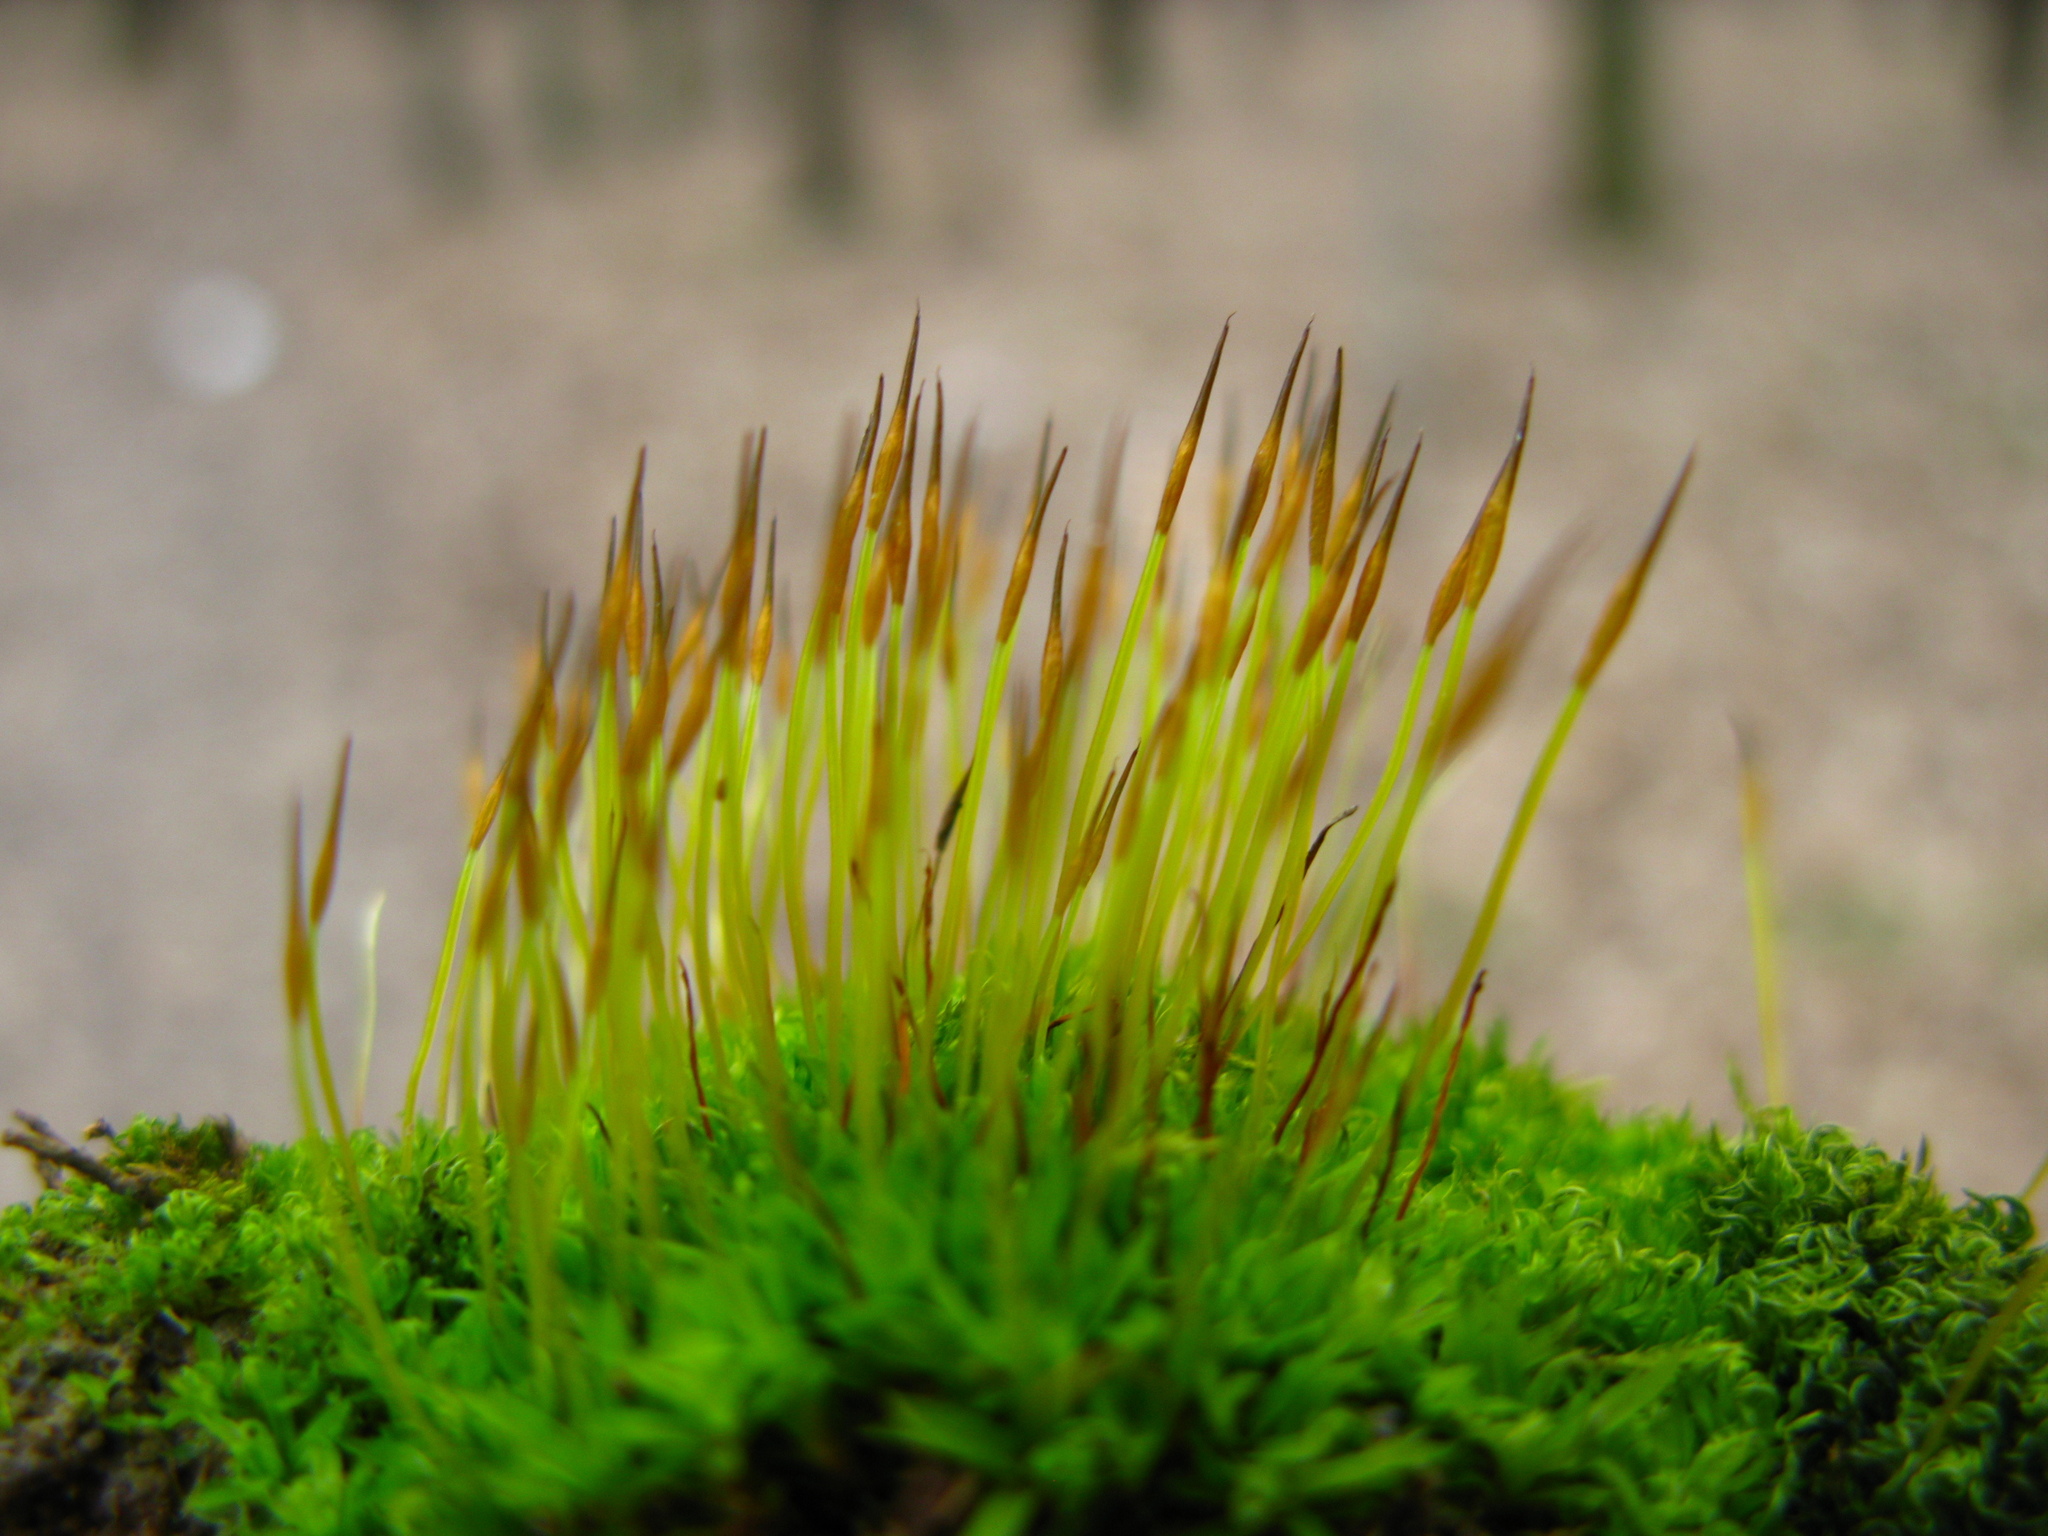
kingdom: Plantae
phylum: Bryophyta
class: Bryopsida
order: Pottiales
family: Pottiaceae
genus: Tortula
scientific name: Tortula subulata
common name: Upright screw-moss
